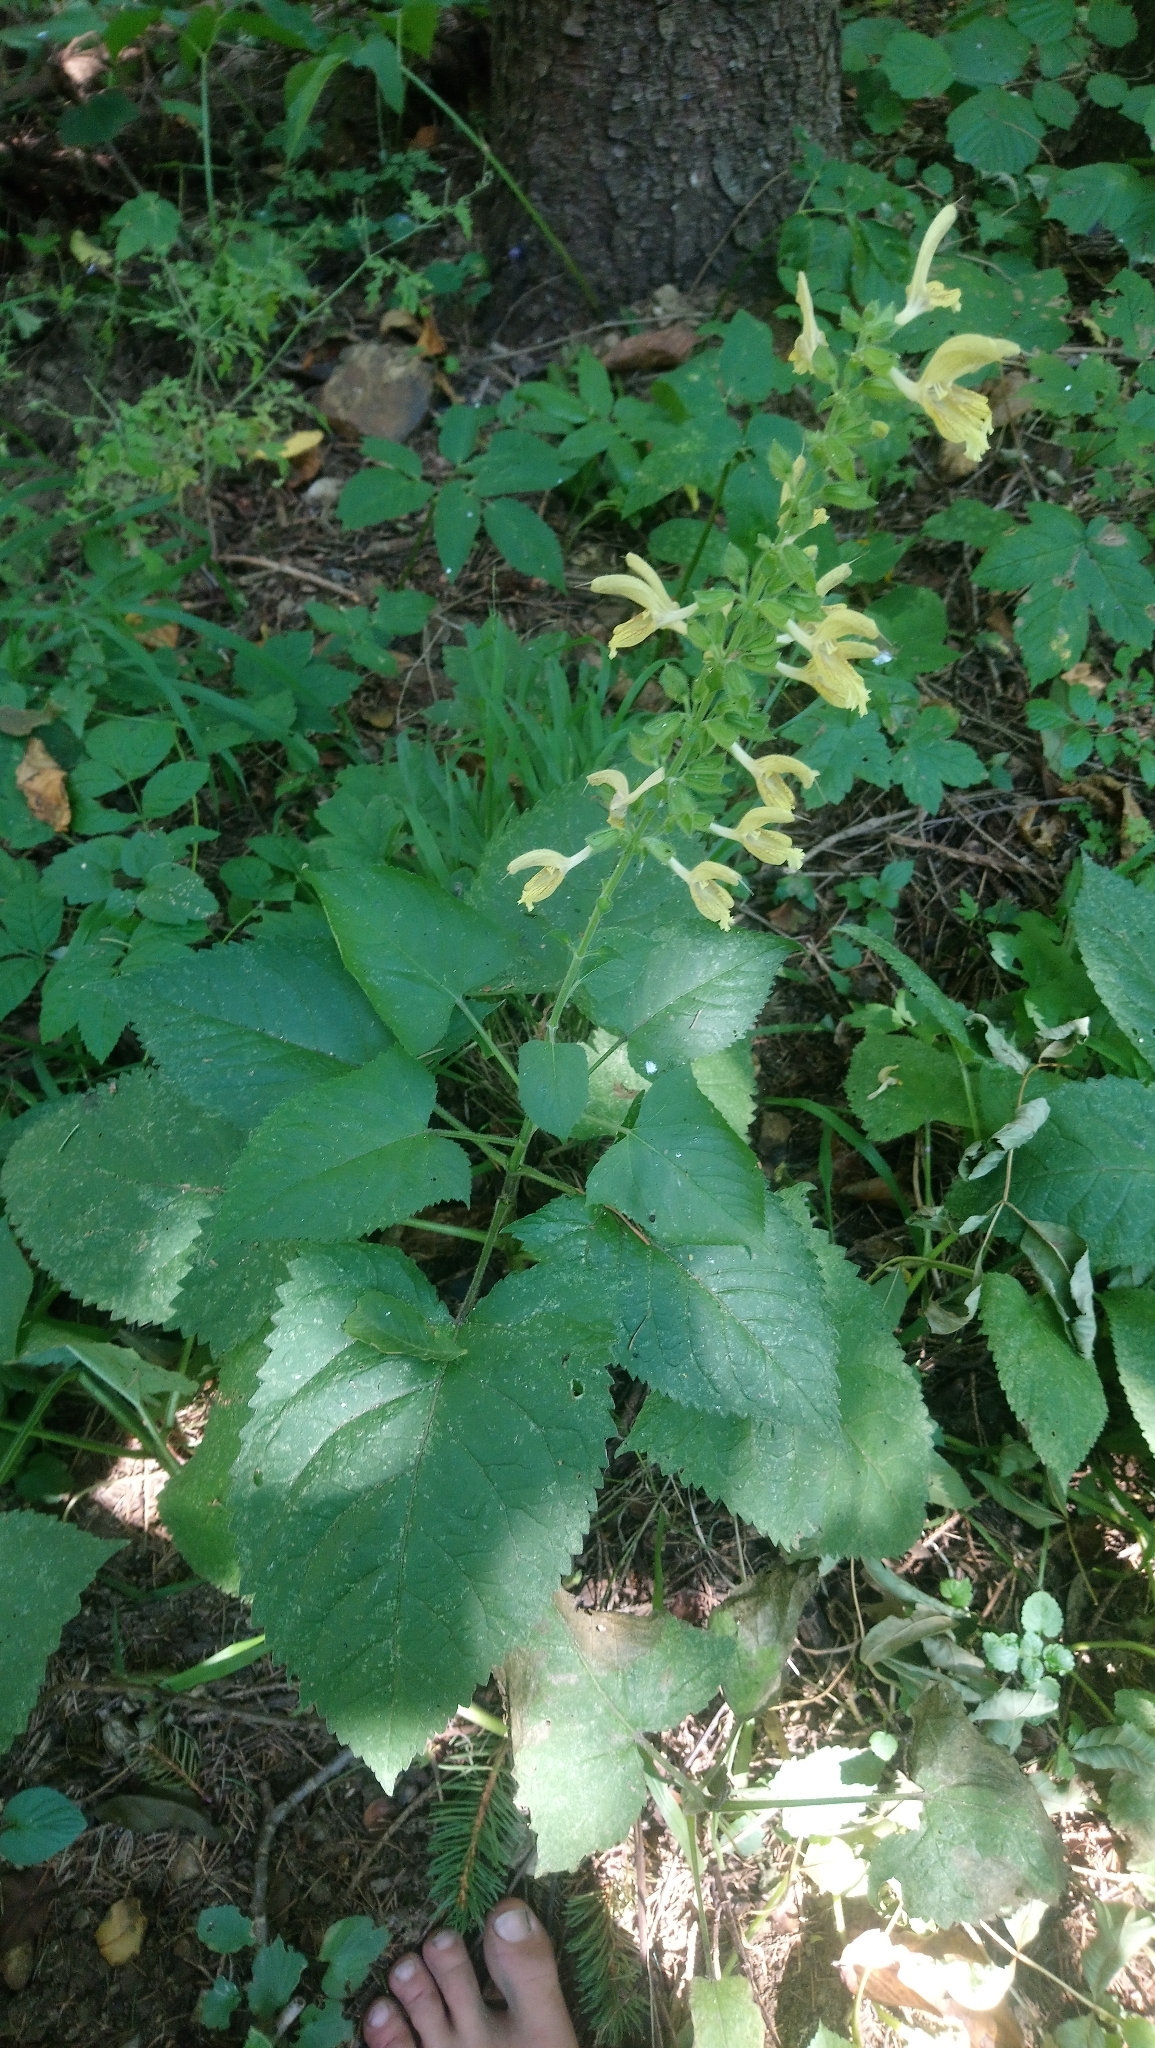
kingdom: Plantae
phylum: Tracheophyta
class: Magnoliopsida
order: Lamiales
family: Lamiaceae
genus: Salvia
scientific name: Salvia glutinosa
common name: Sticky clary
